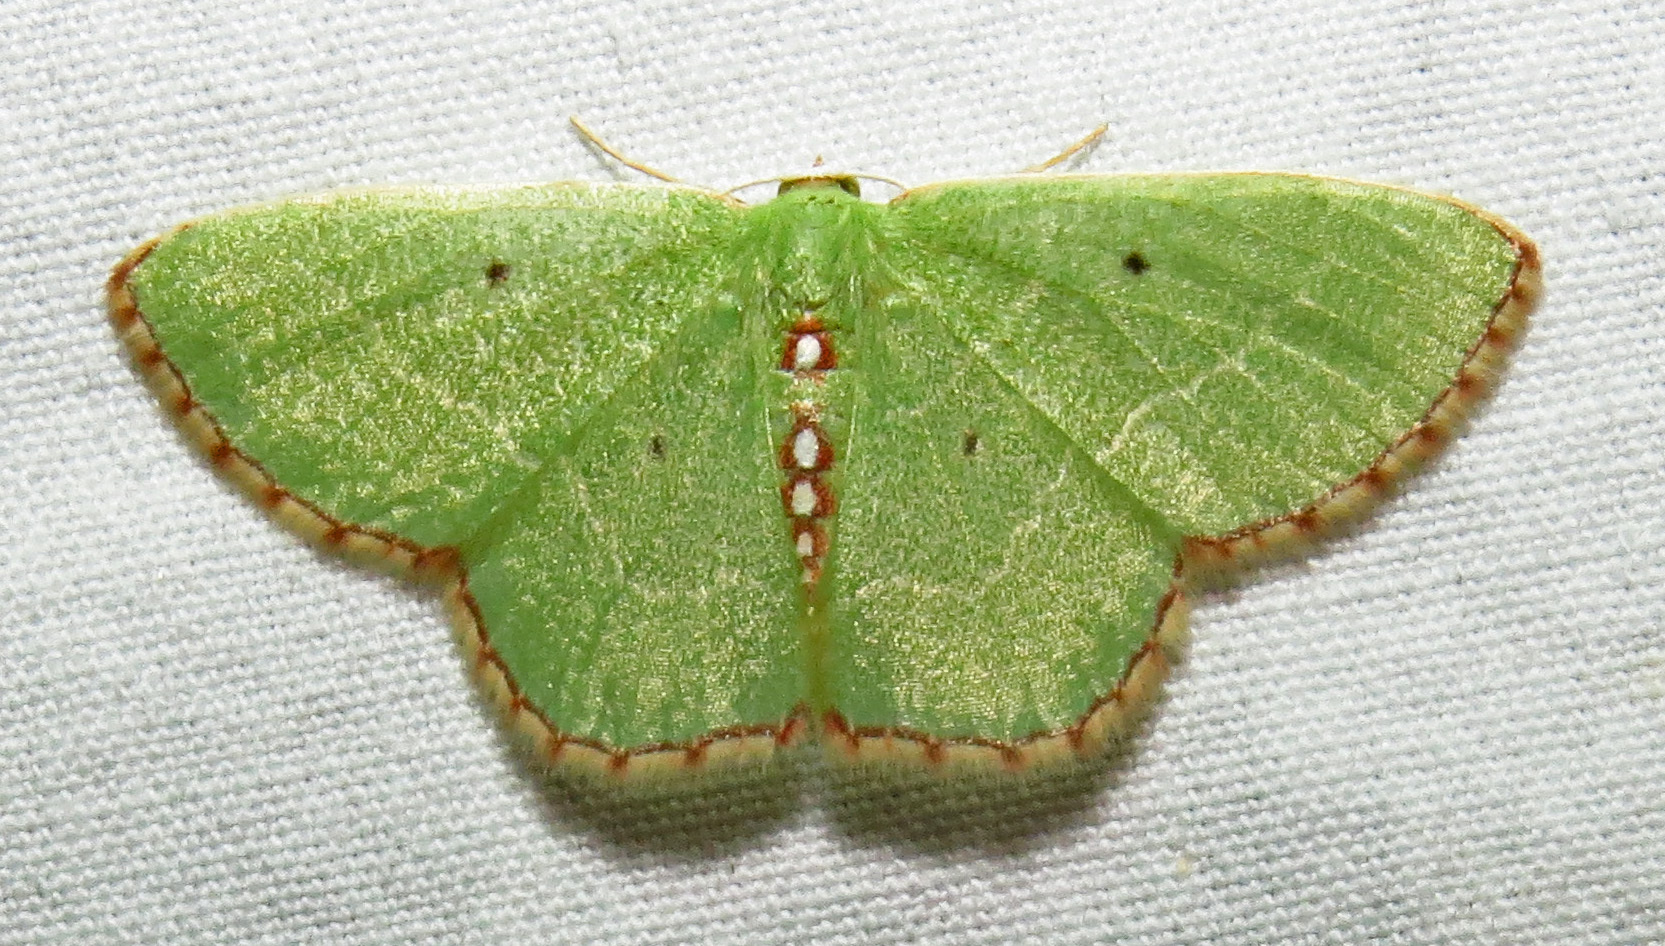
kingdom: Animalia
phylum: Arthropoda
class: Insecta
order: Lepidoptera
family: Geometridae
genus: Nemoria
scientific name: Nemoria lixaria
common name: Red-bordered emerald
